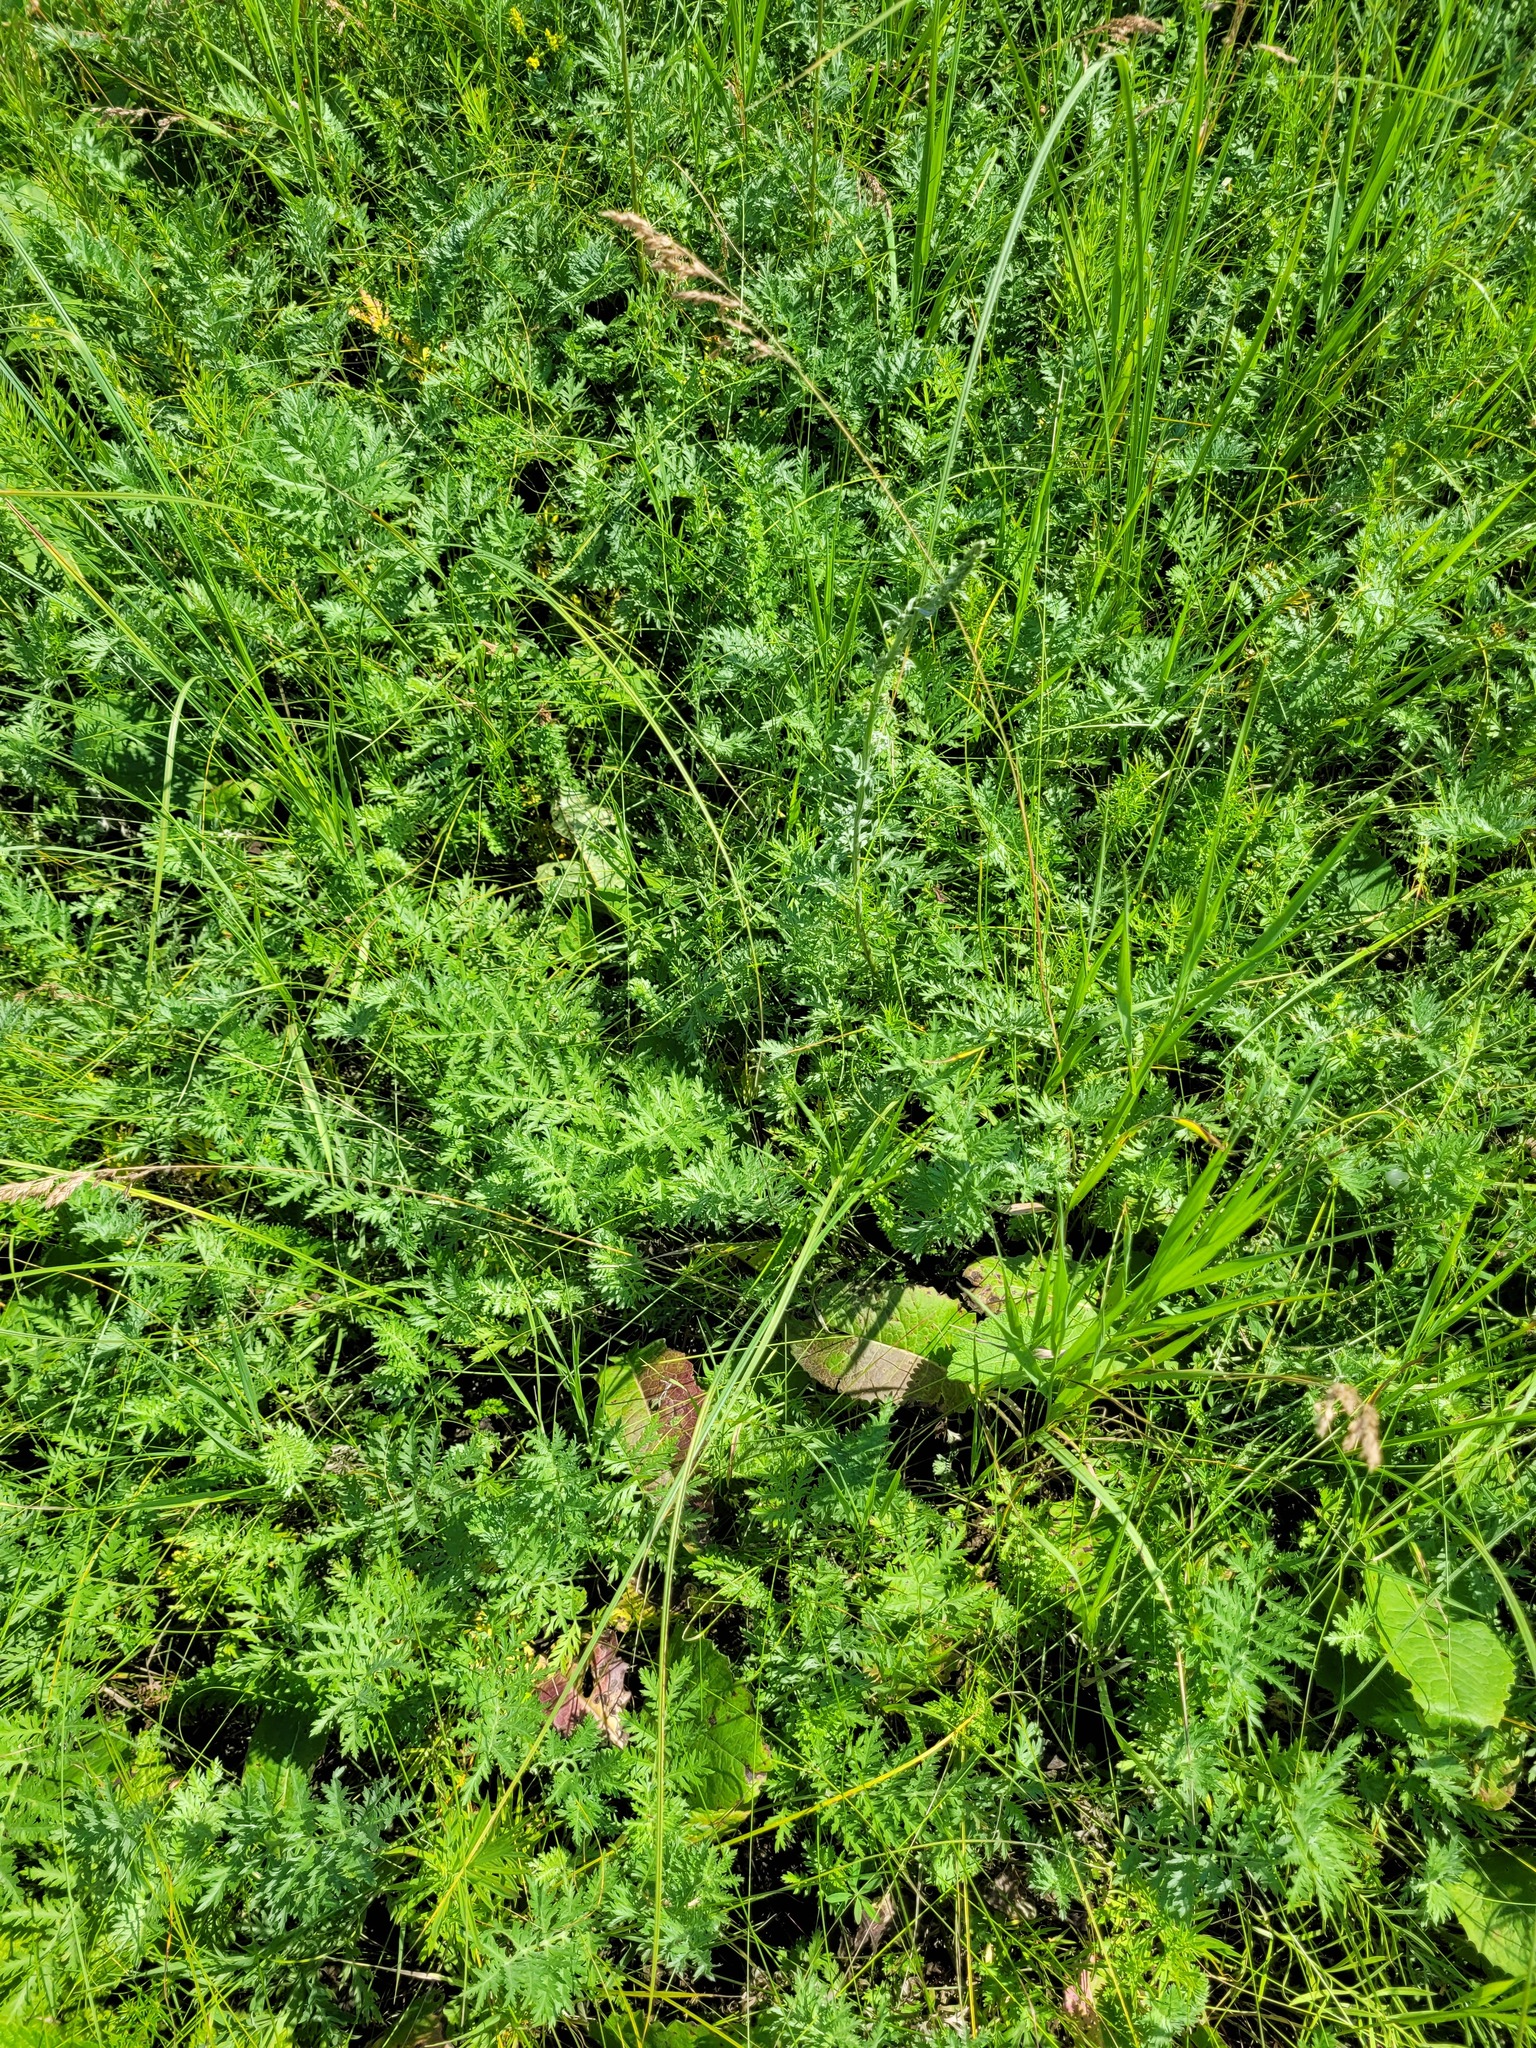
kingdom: Plantae
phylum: Tracheophyta
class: Magnoliopsida
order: Asterales
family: Asteraceae
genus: Artemisia
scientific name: Artemisia armeniaca
